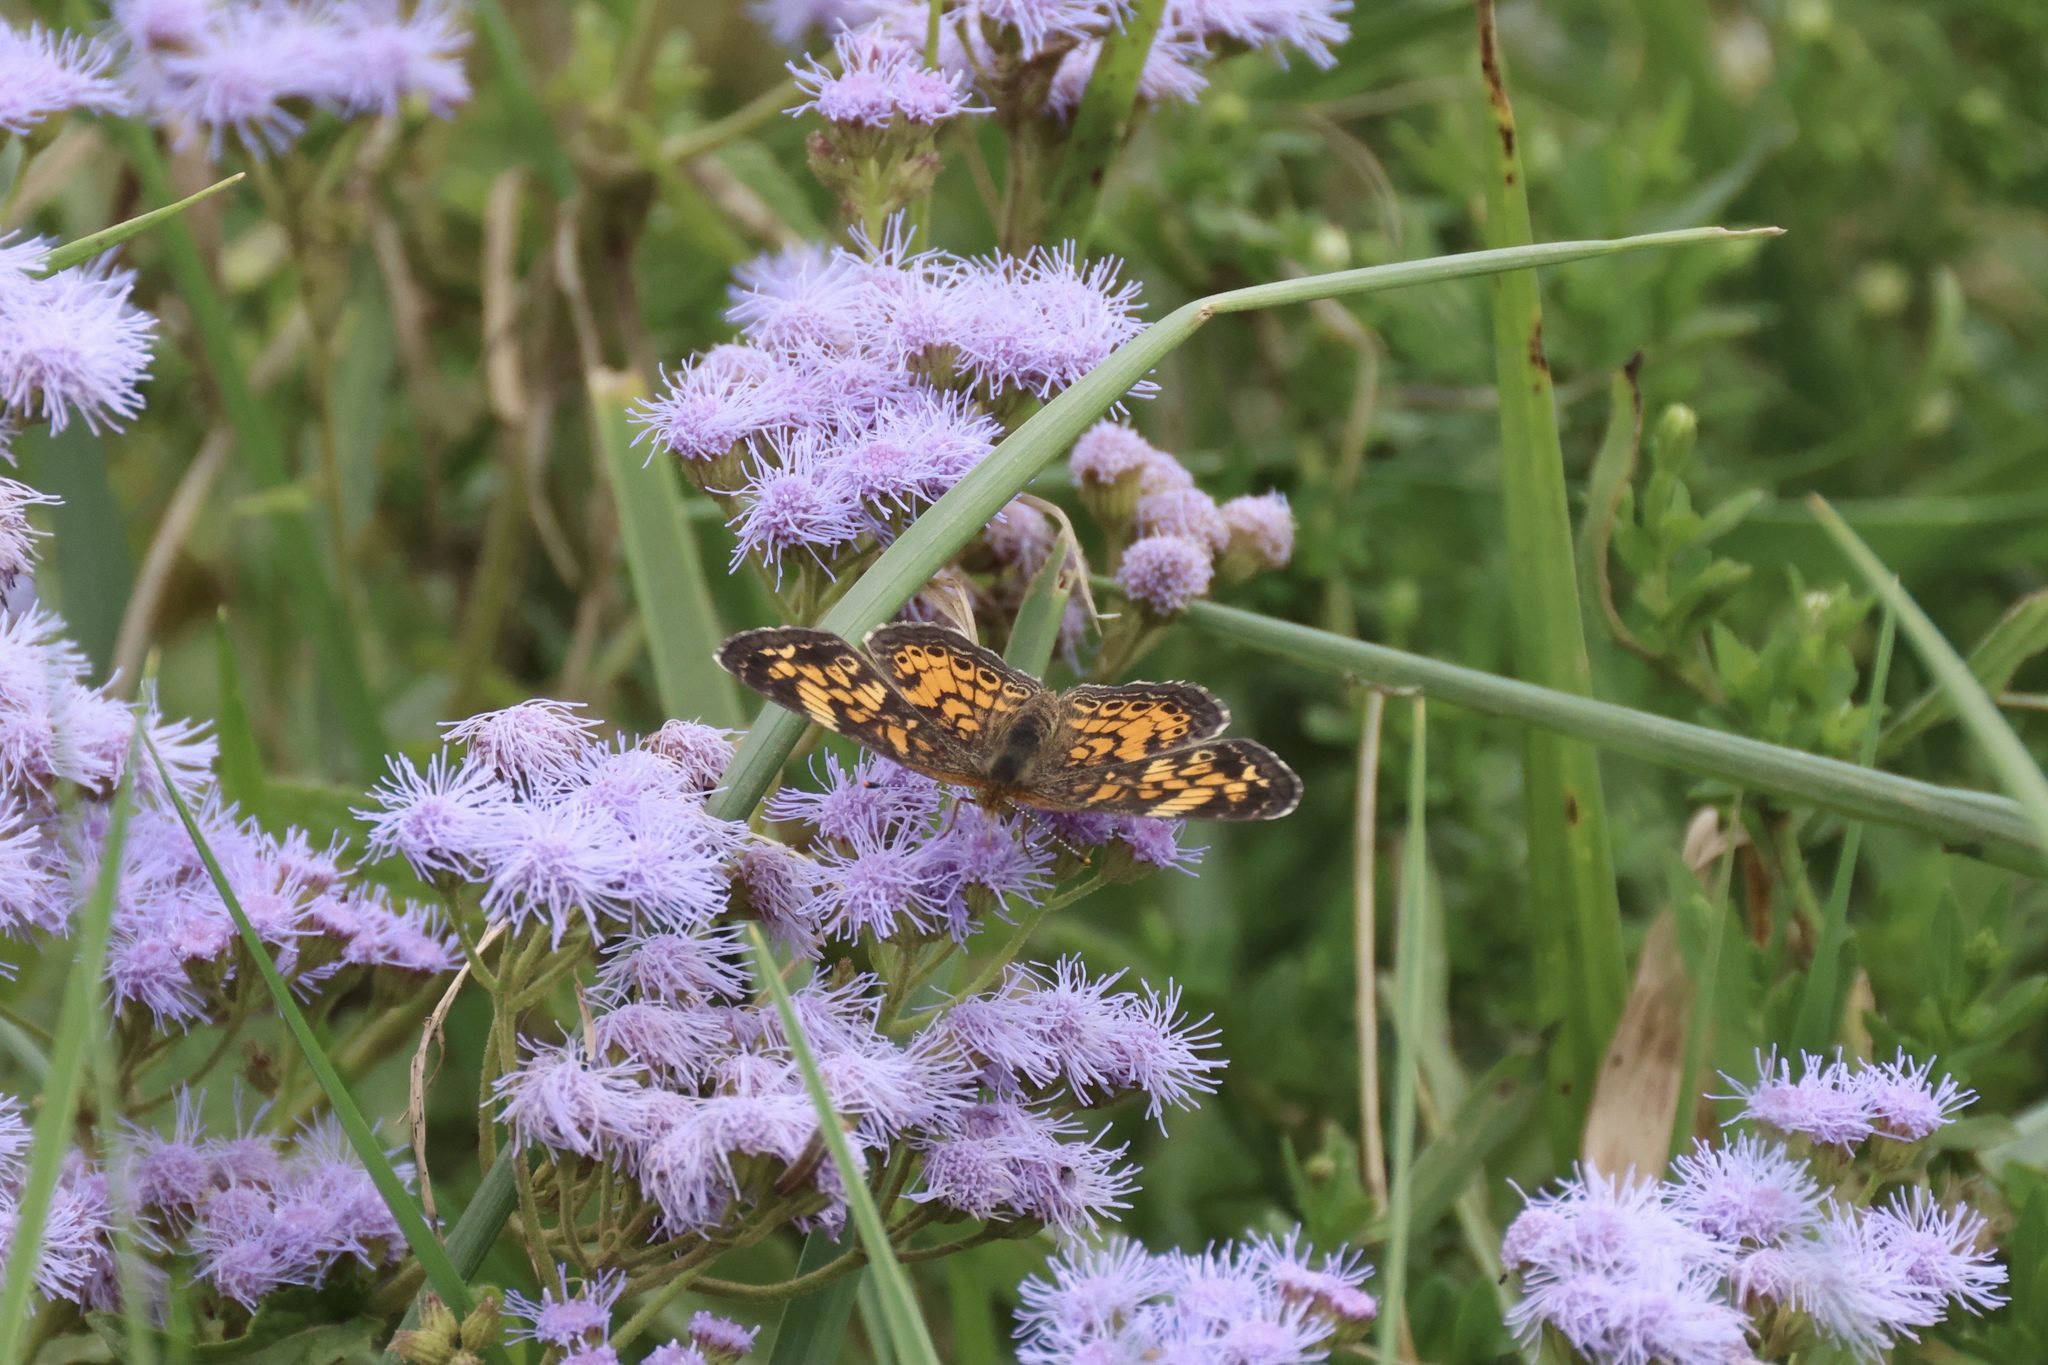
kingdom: Plantae
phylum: Tracheophyta
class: Magnoliopsida
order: Asterales
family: Asteraceae
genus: Conoclinium
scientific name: Conoclinium coelestinum
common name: Blue mistflower
